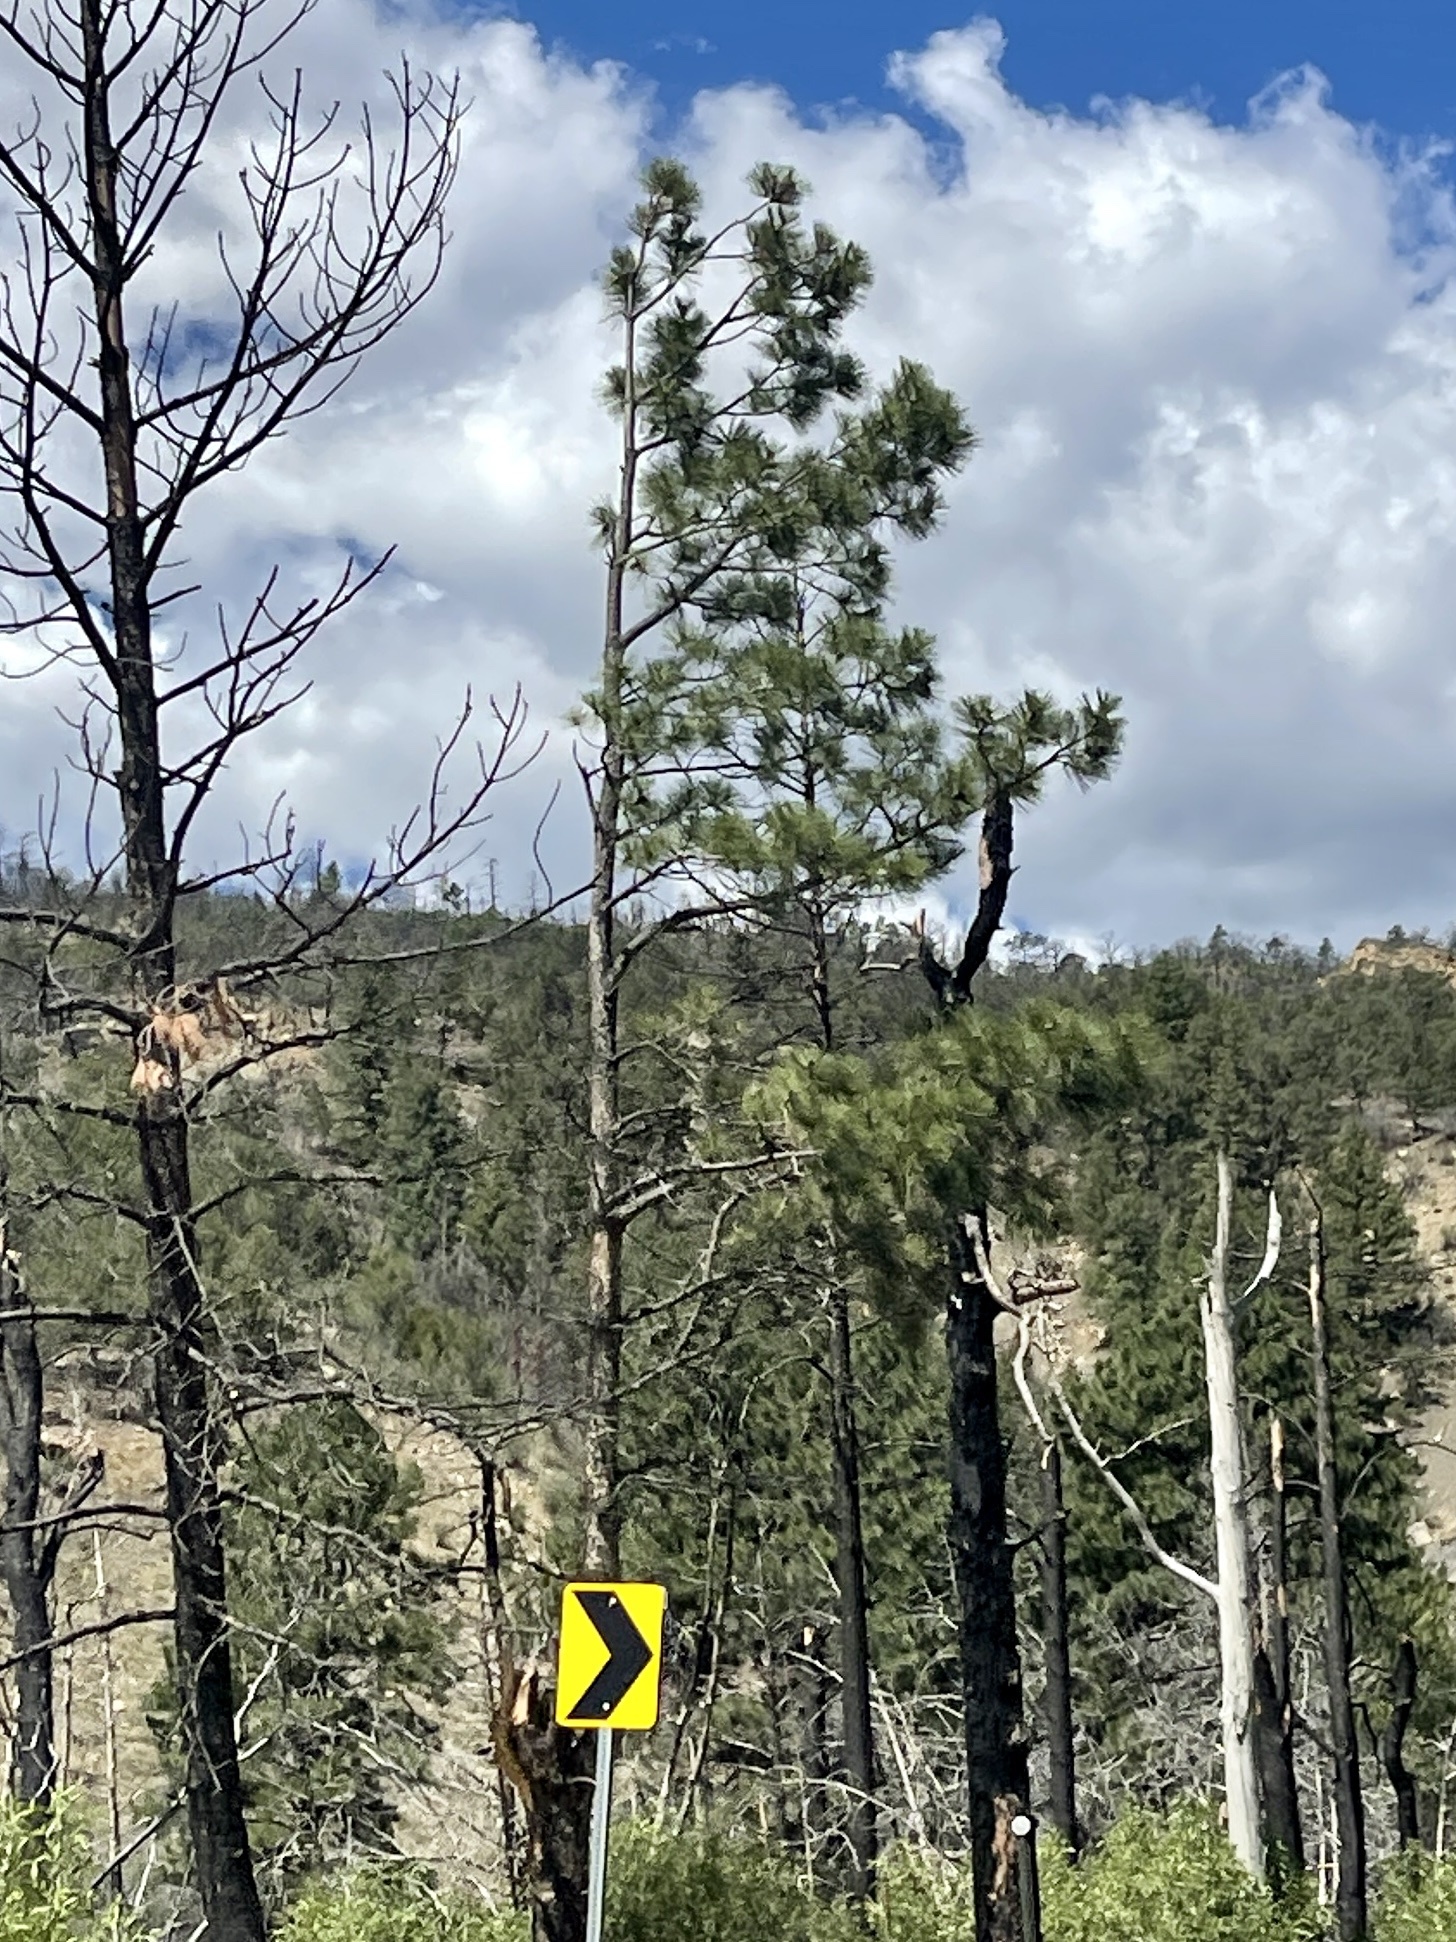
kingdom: Plantae
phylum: Tracheophyta
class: Pinopsida
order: Pinales
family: Pinaceae
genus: Pinus
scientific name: Pinus ponderosa
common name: Western yellow-pine
